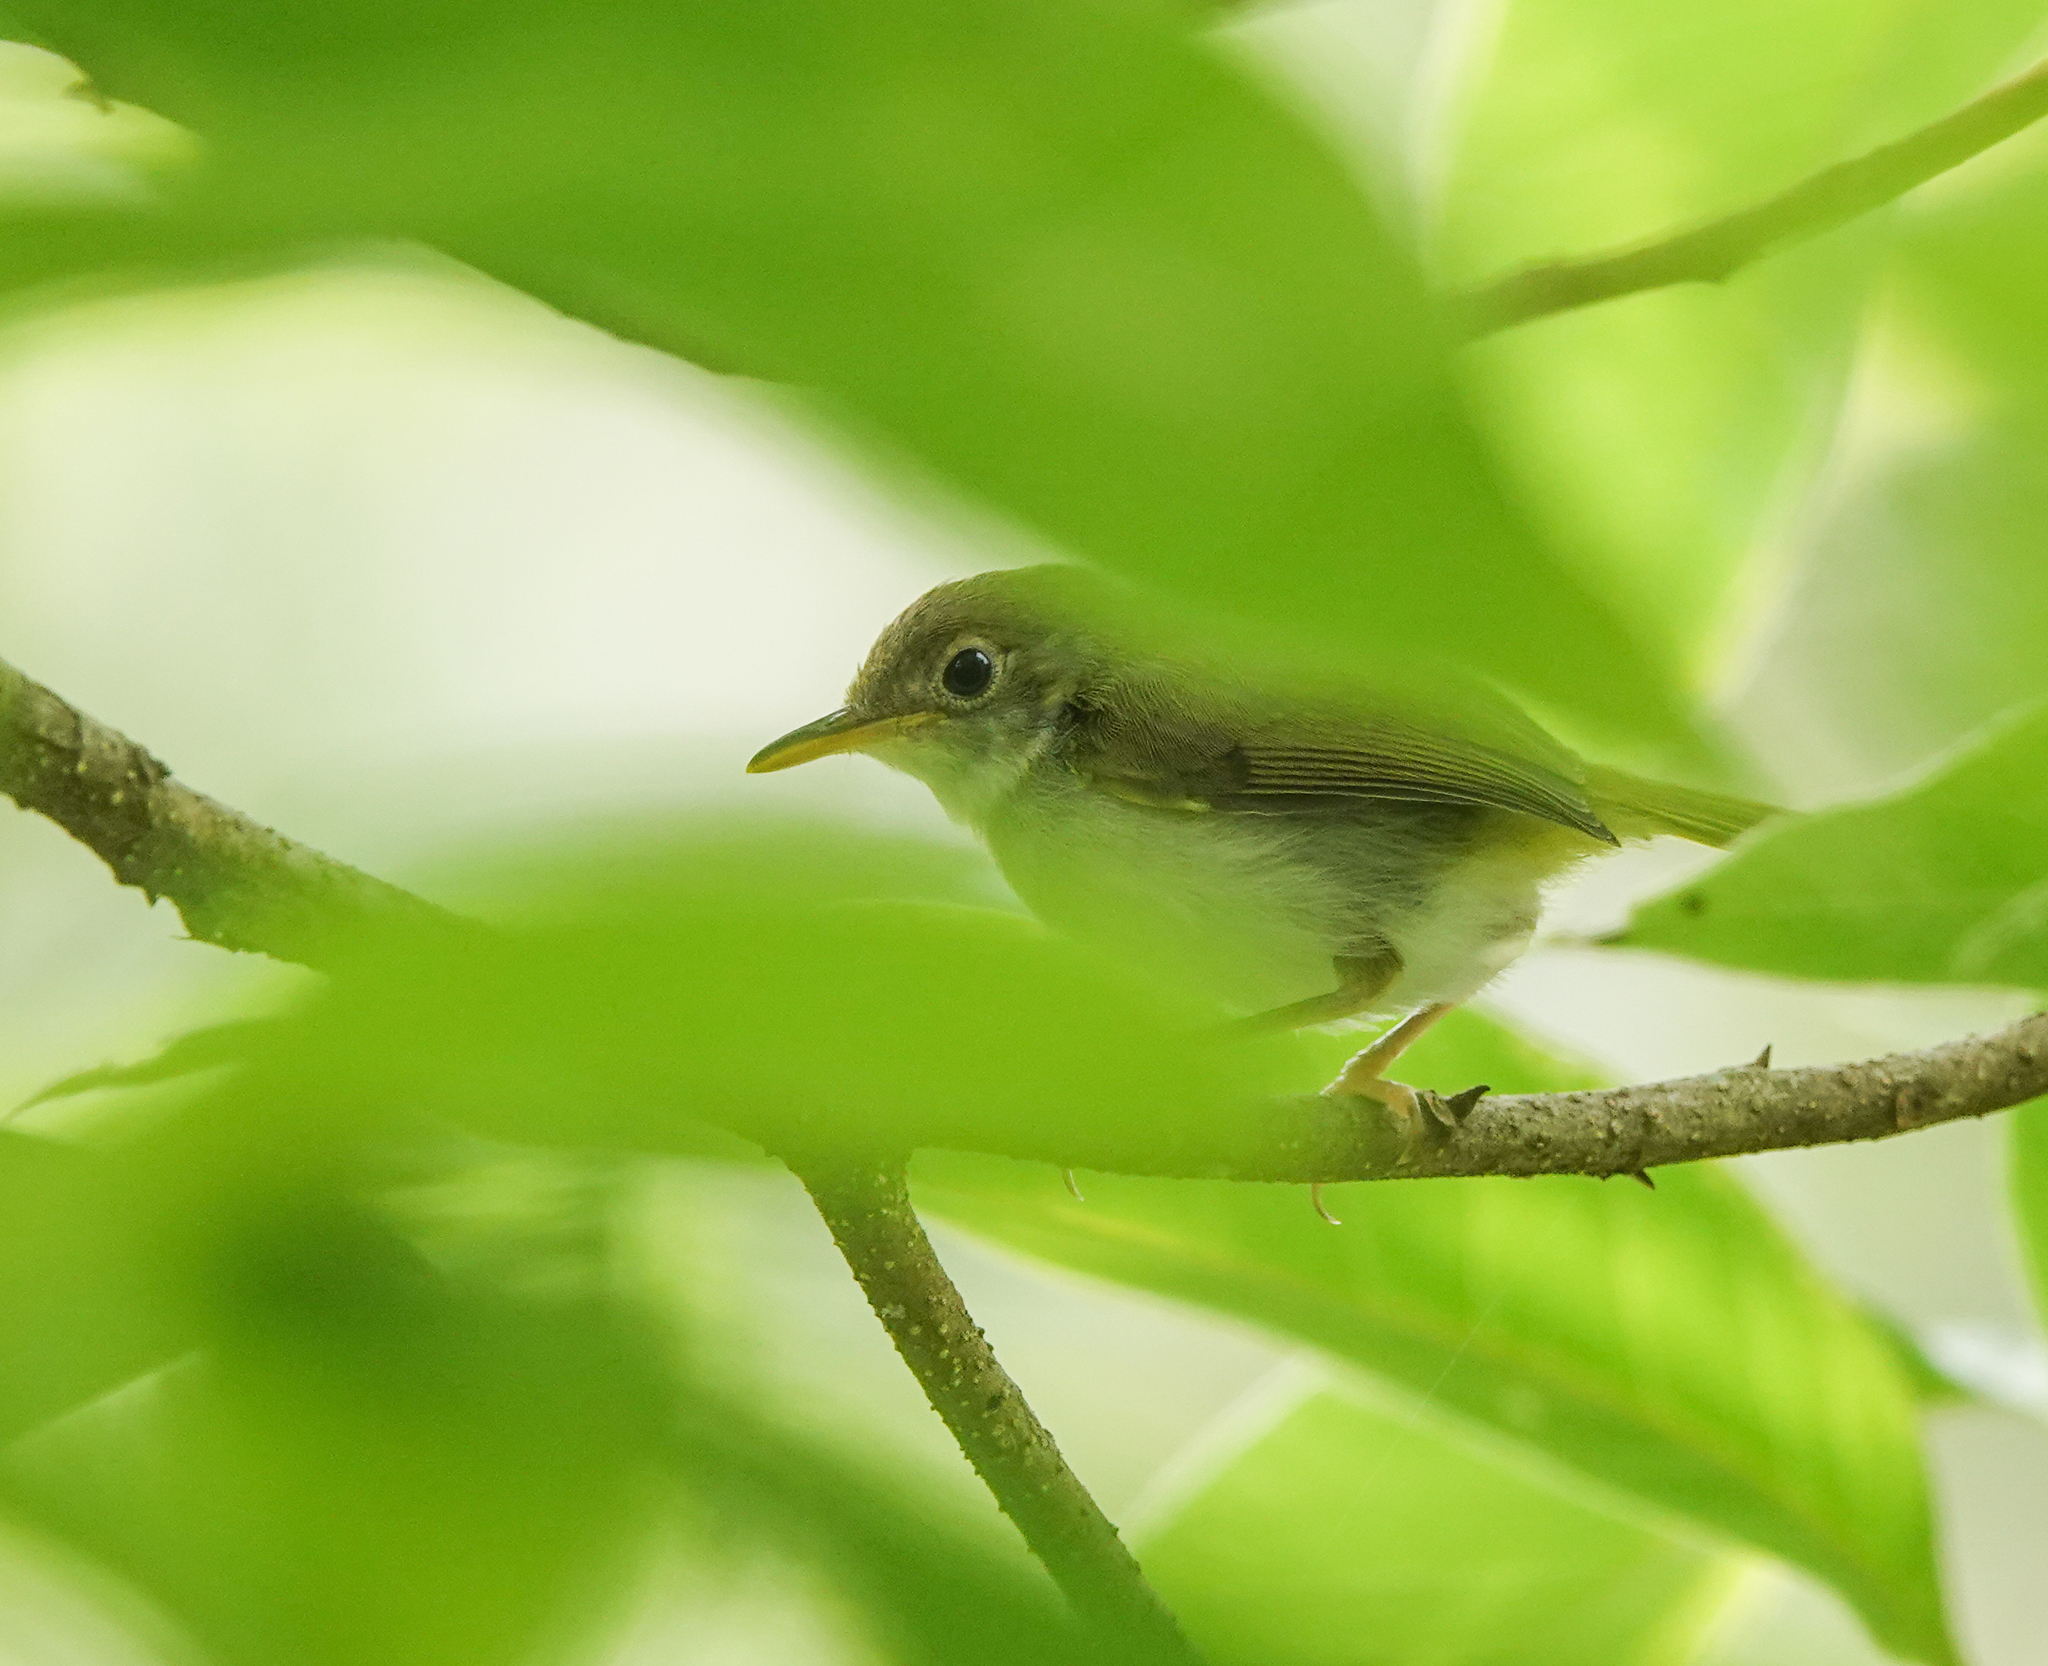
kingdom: Animalia
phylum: Chordata
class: Aves
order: Passeriformes
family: Cisticolidae
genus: Orthotomus
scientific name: Orthotomus atrogularis
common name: Dark-necked tailorbird
